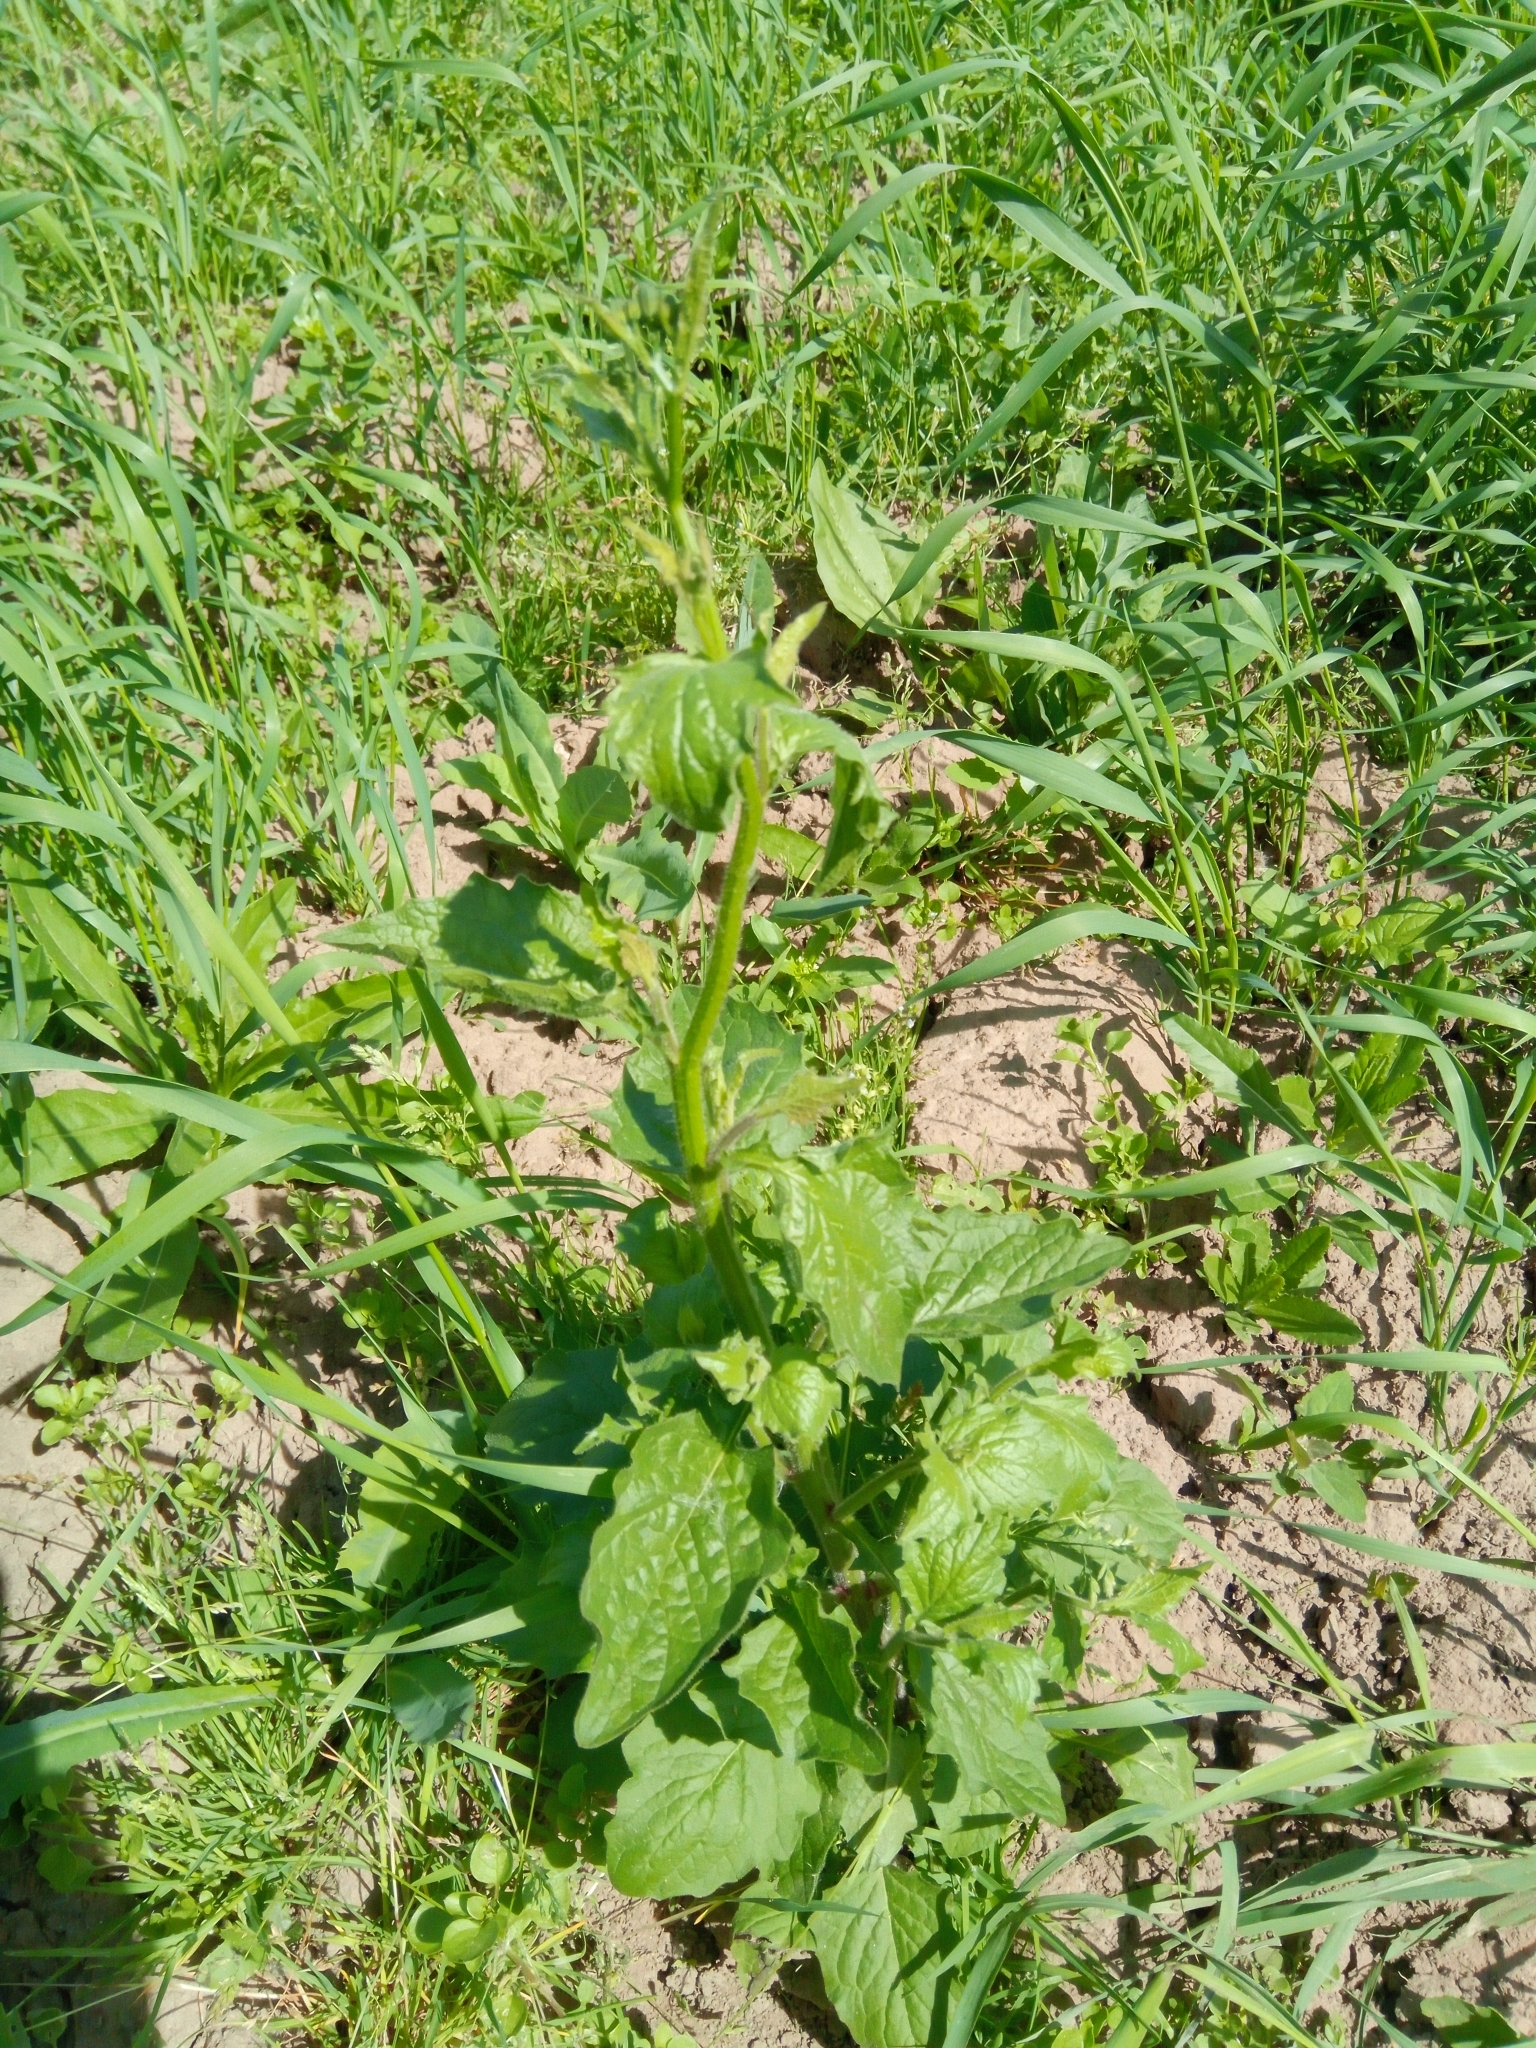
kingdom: Plantae
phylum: Tracheophyta
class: Magnoliopsida
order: Asterales
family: Asteraceae
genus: Lapsana
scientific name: Lapsana communis
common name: Nipplewort
